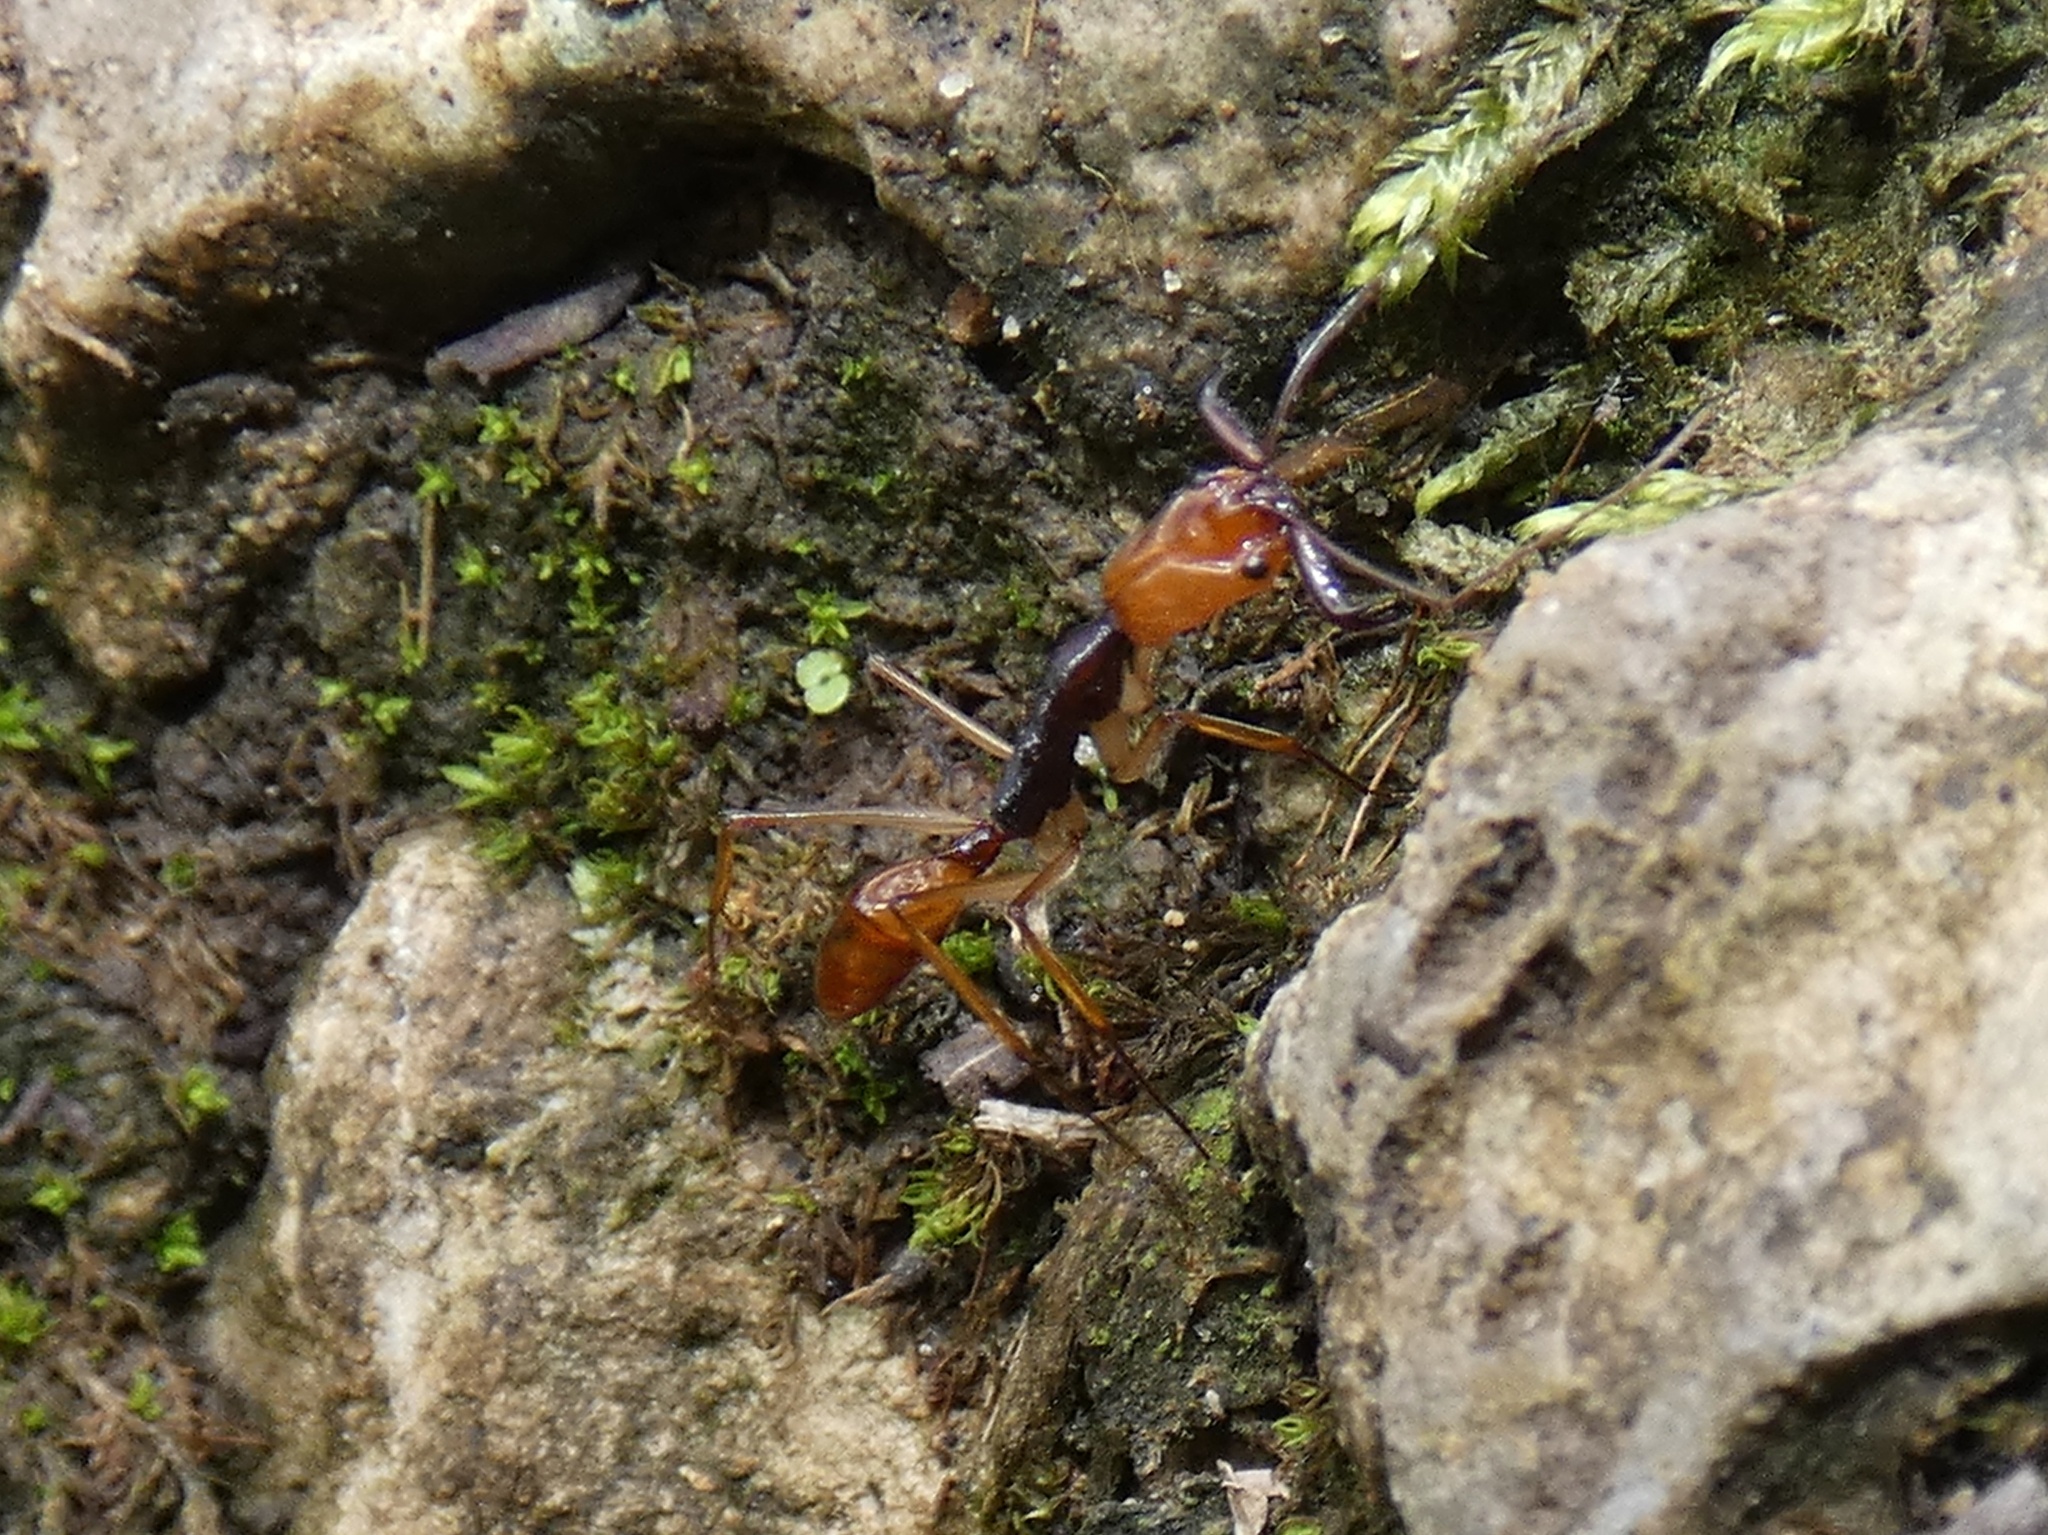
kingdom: Animalia
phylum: Arthropoda
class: Insecta
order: Hymenoptera
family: Formicidae
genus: Odontomachus
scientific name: Odontomachus alius
